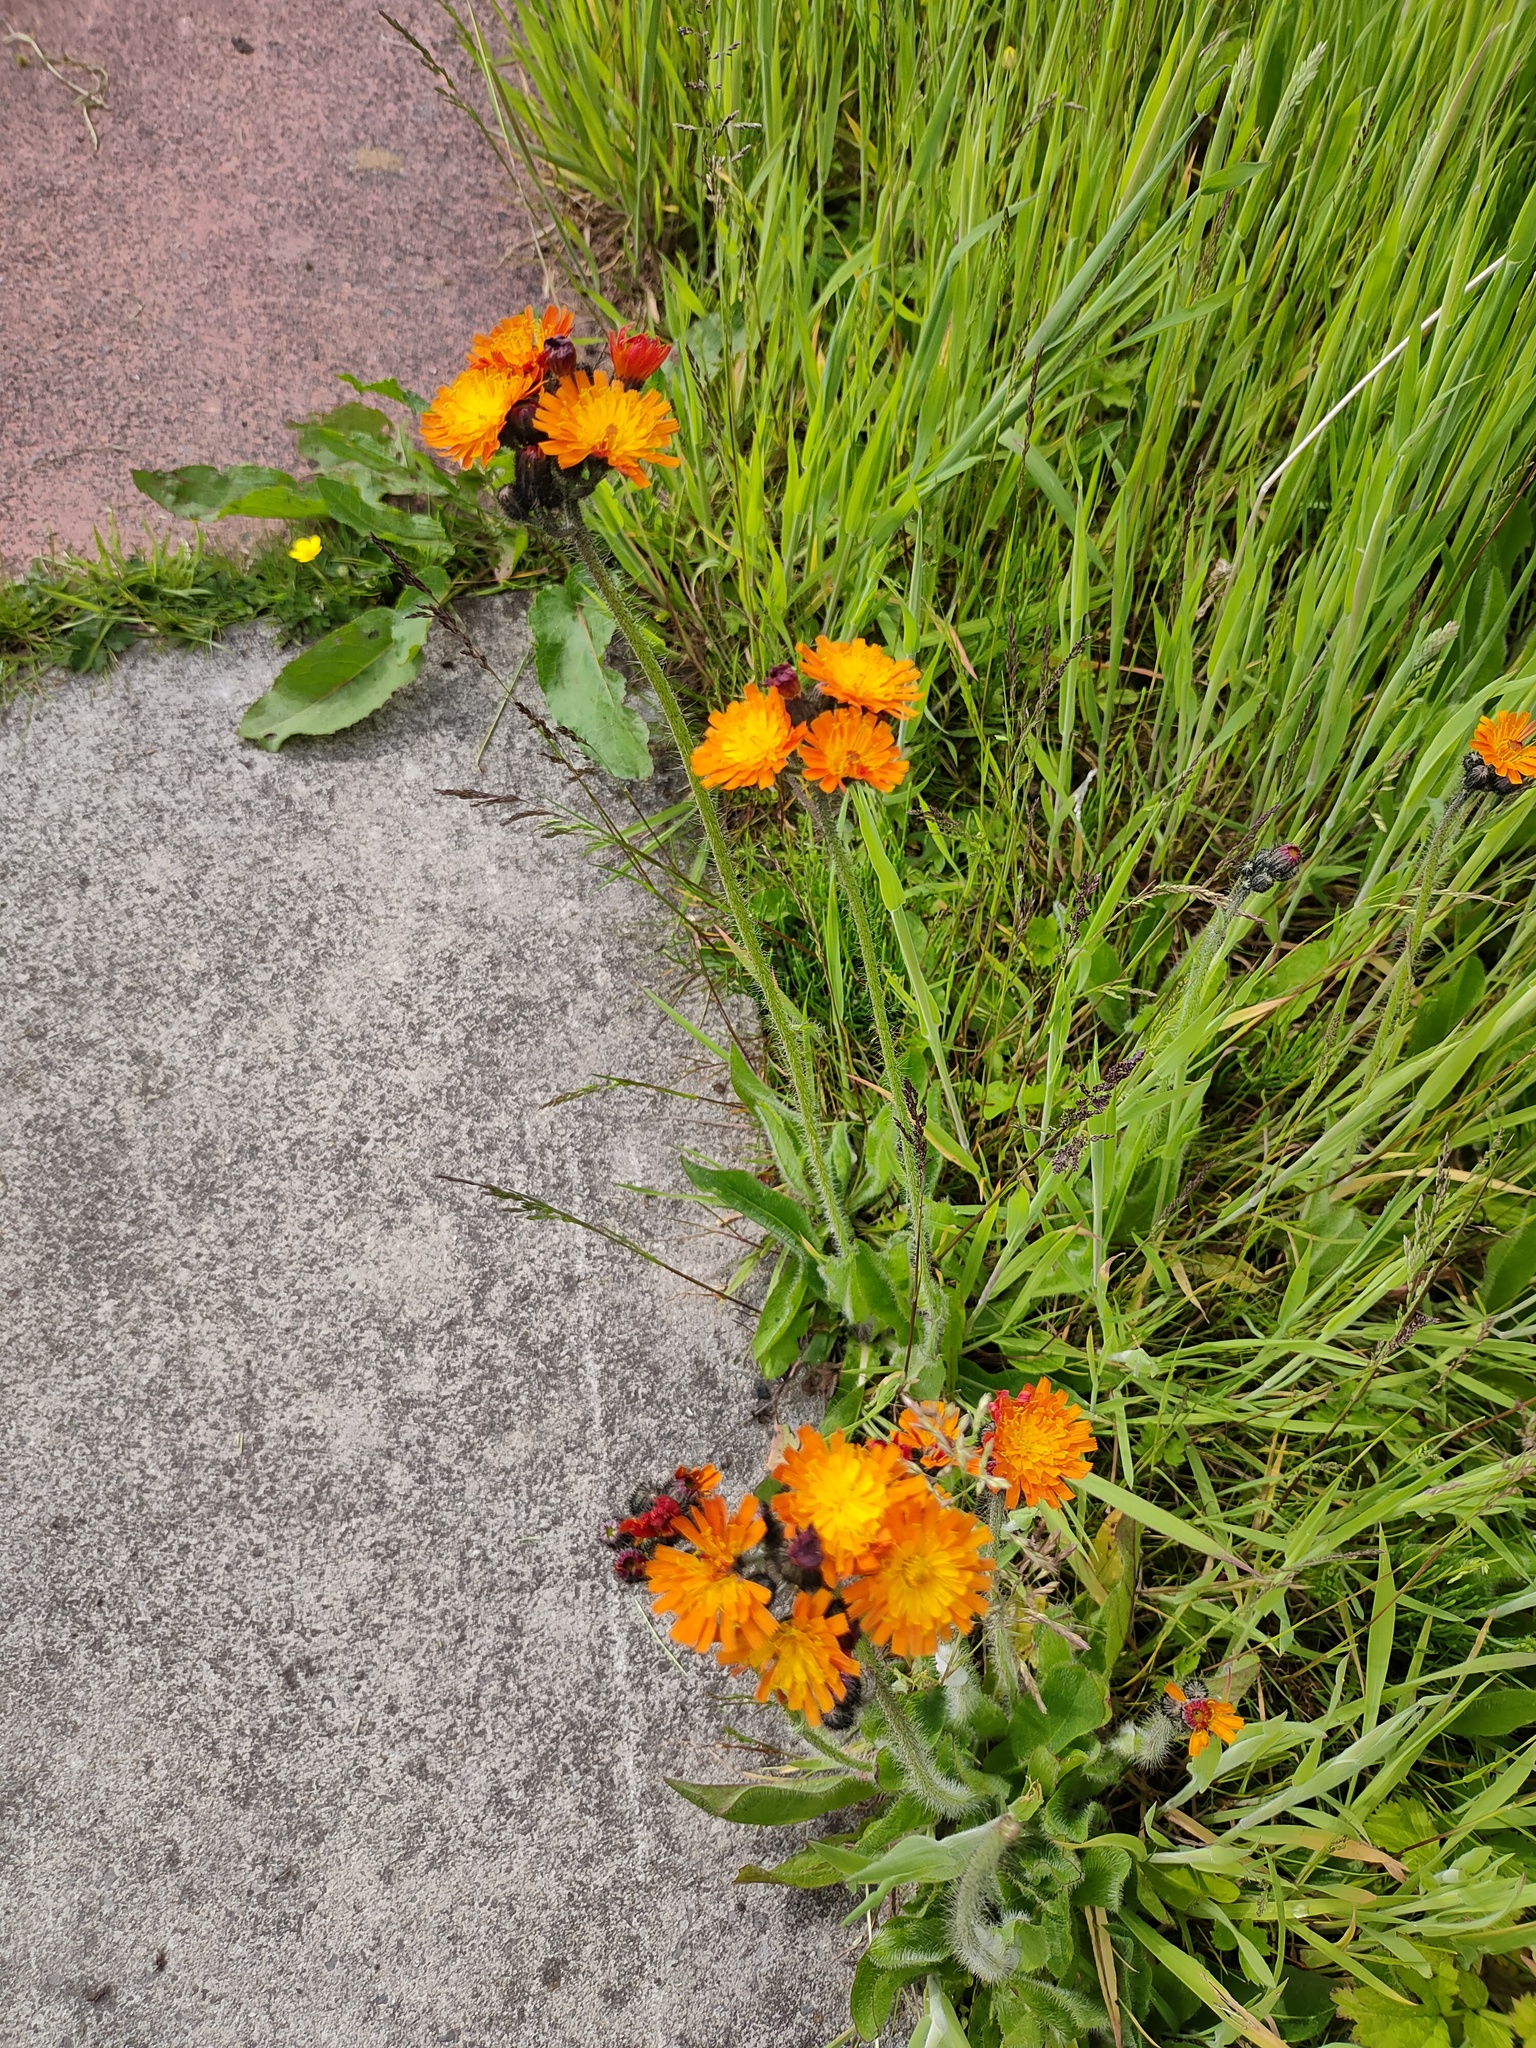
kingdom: Plantae
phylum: Tracheophyta
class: Magnoliopsida
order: Asterales
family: Asteraceae
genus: Pilosella
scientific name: Pilosella aurantiaca
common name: Fox-and-cubs
